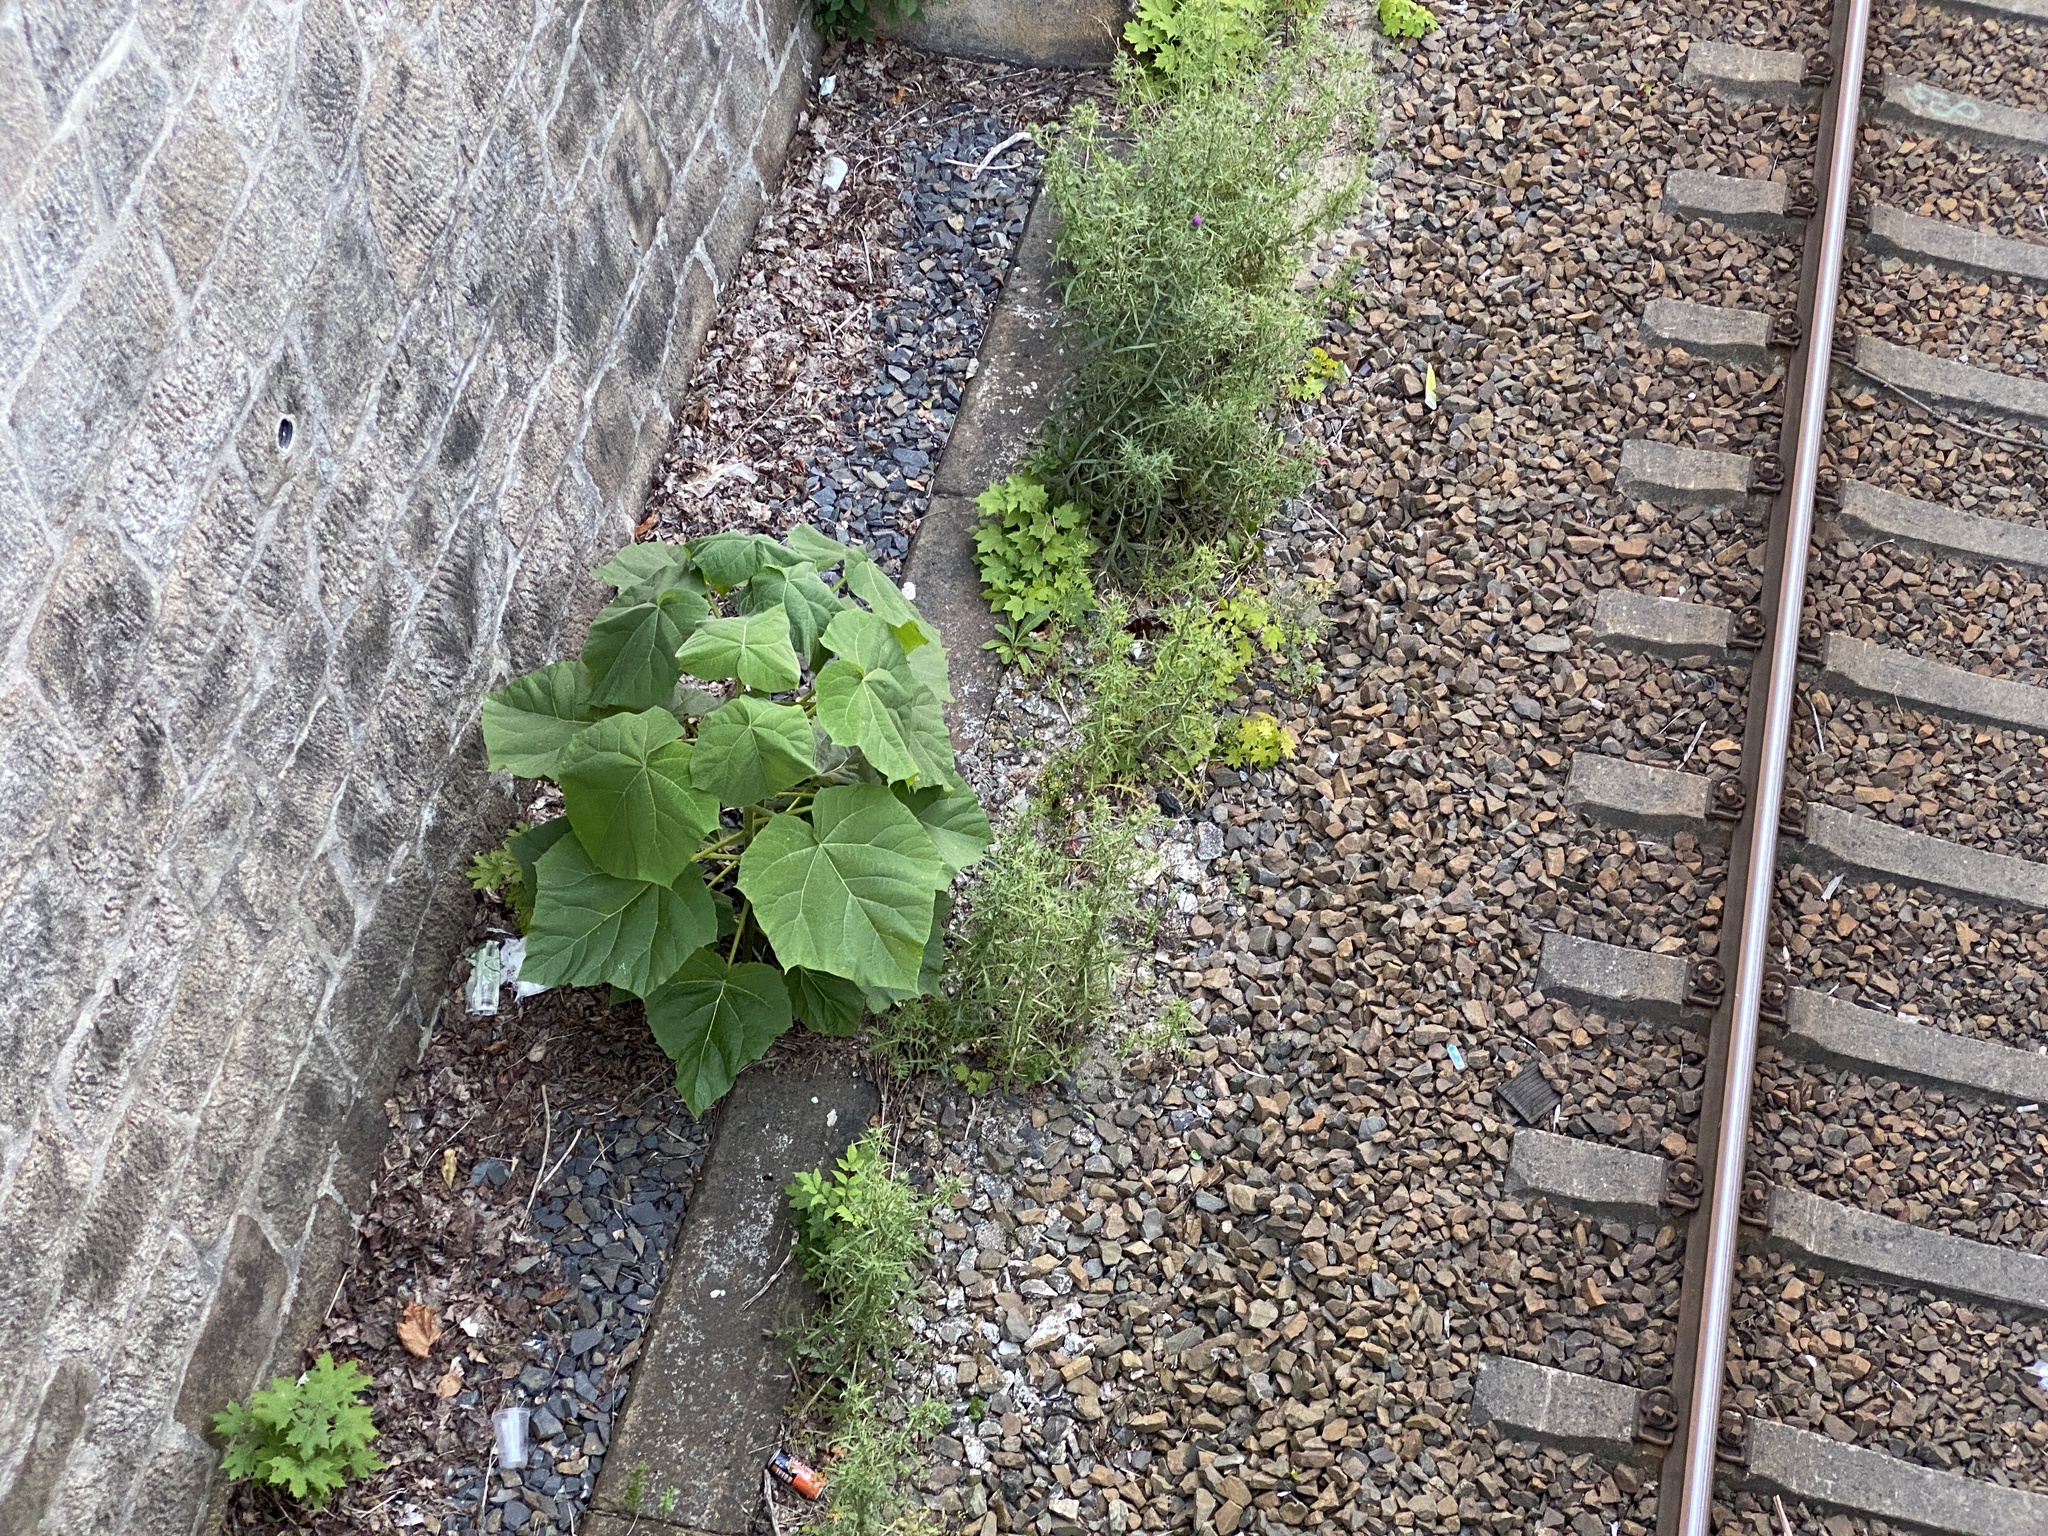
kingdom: Plantae
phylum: Tracheophyta
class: Magnoliopsida
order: Lamiales
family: Paulowniaceae
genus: Paulownia
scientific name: Paulownia tomentosa
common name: Foxglove-tree
